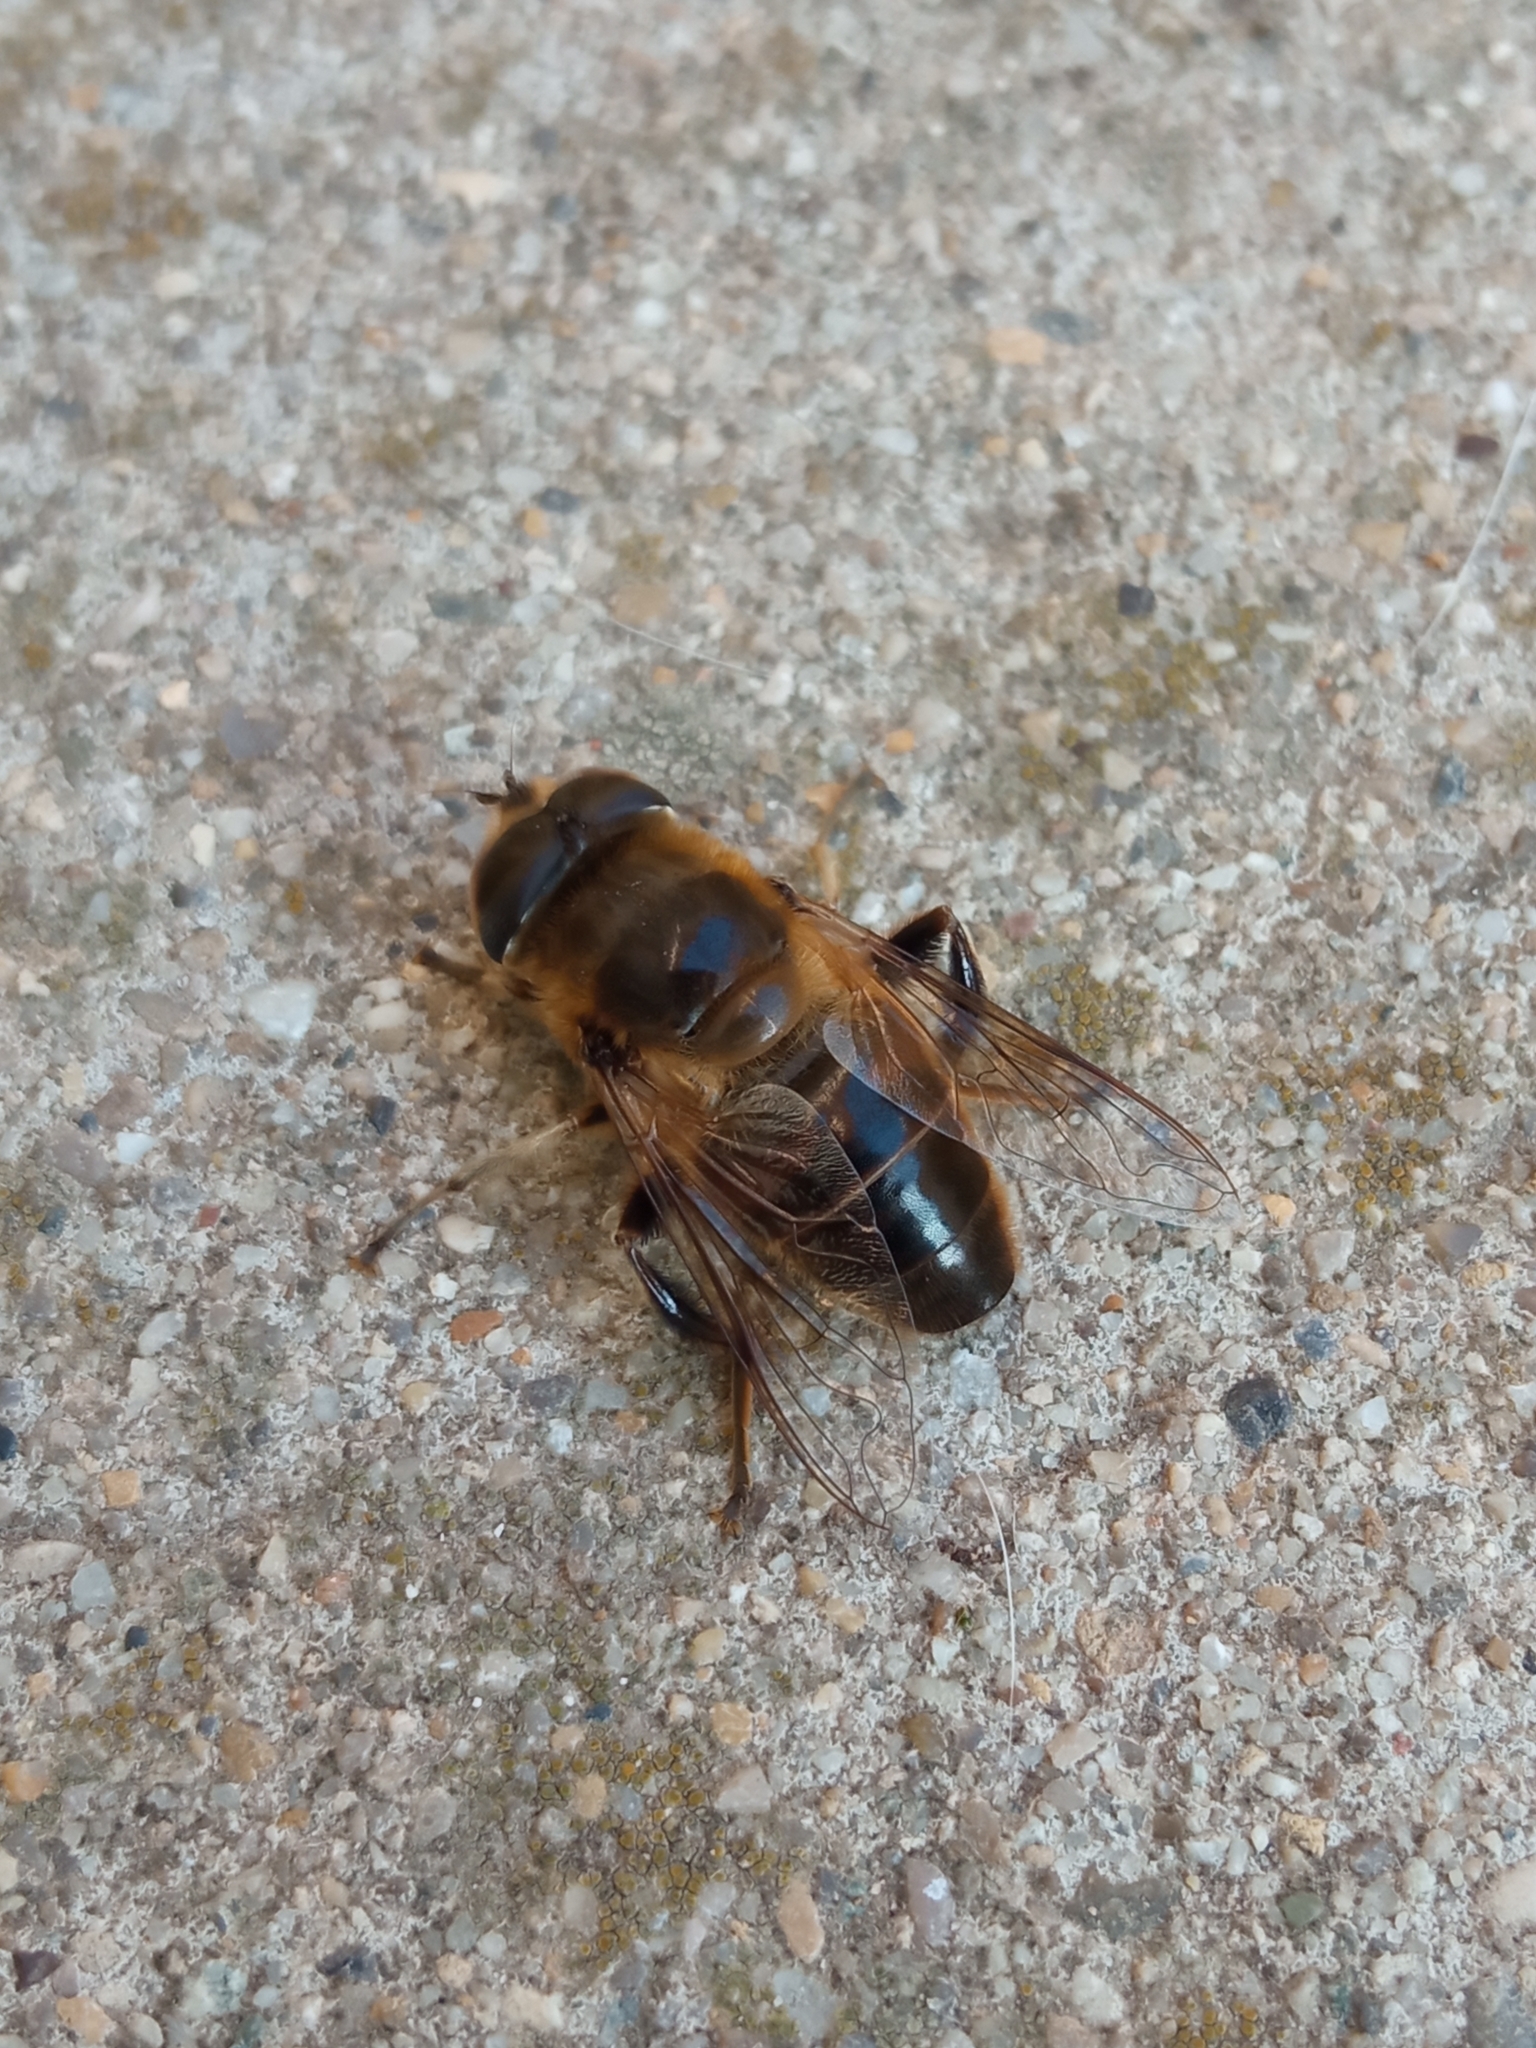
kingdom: Animalia
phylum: Arthropoda
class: Insecta
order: Diptera
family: Syrphidae
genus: Eristalis
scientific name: Eristalis tenax
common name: Drone fly
